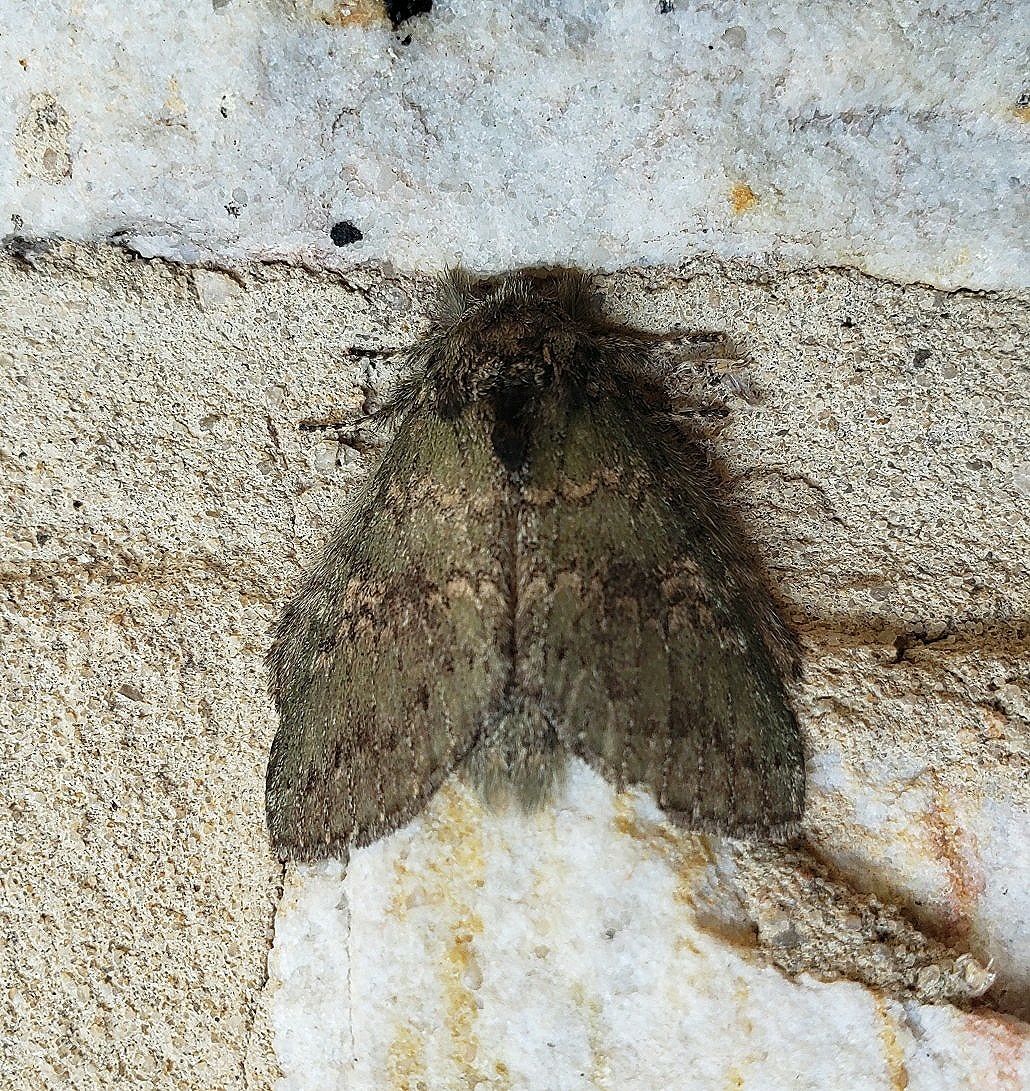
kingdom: Animalia
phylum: Arthropoda
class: Insecta
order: Lepidoptera
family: Notodontidae
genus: Disphragis
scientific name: Disphragis Cecrita biundata
